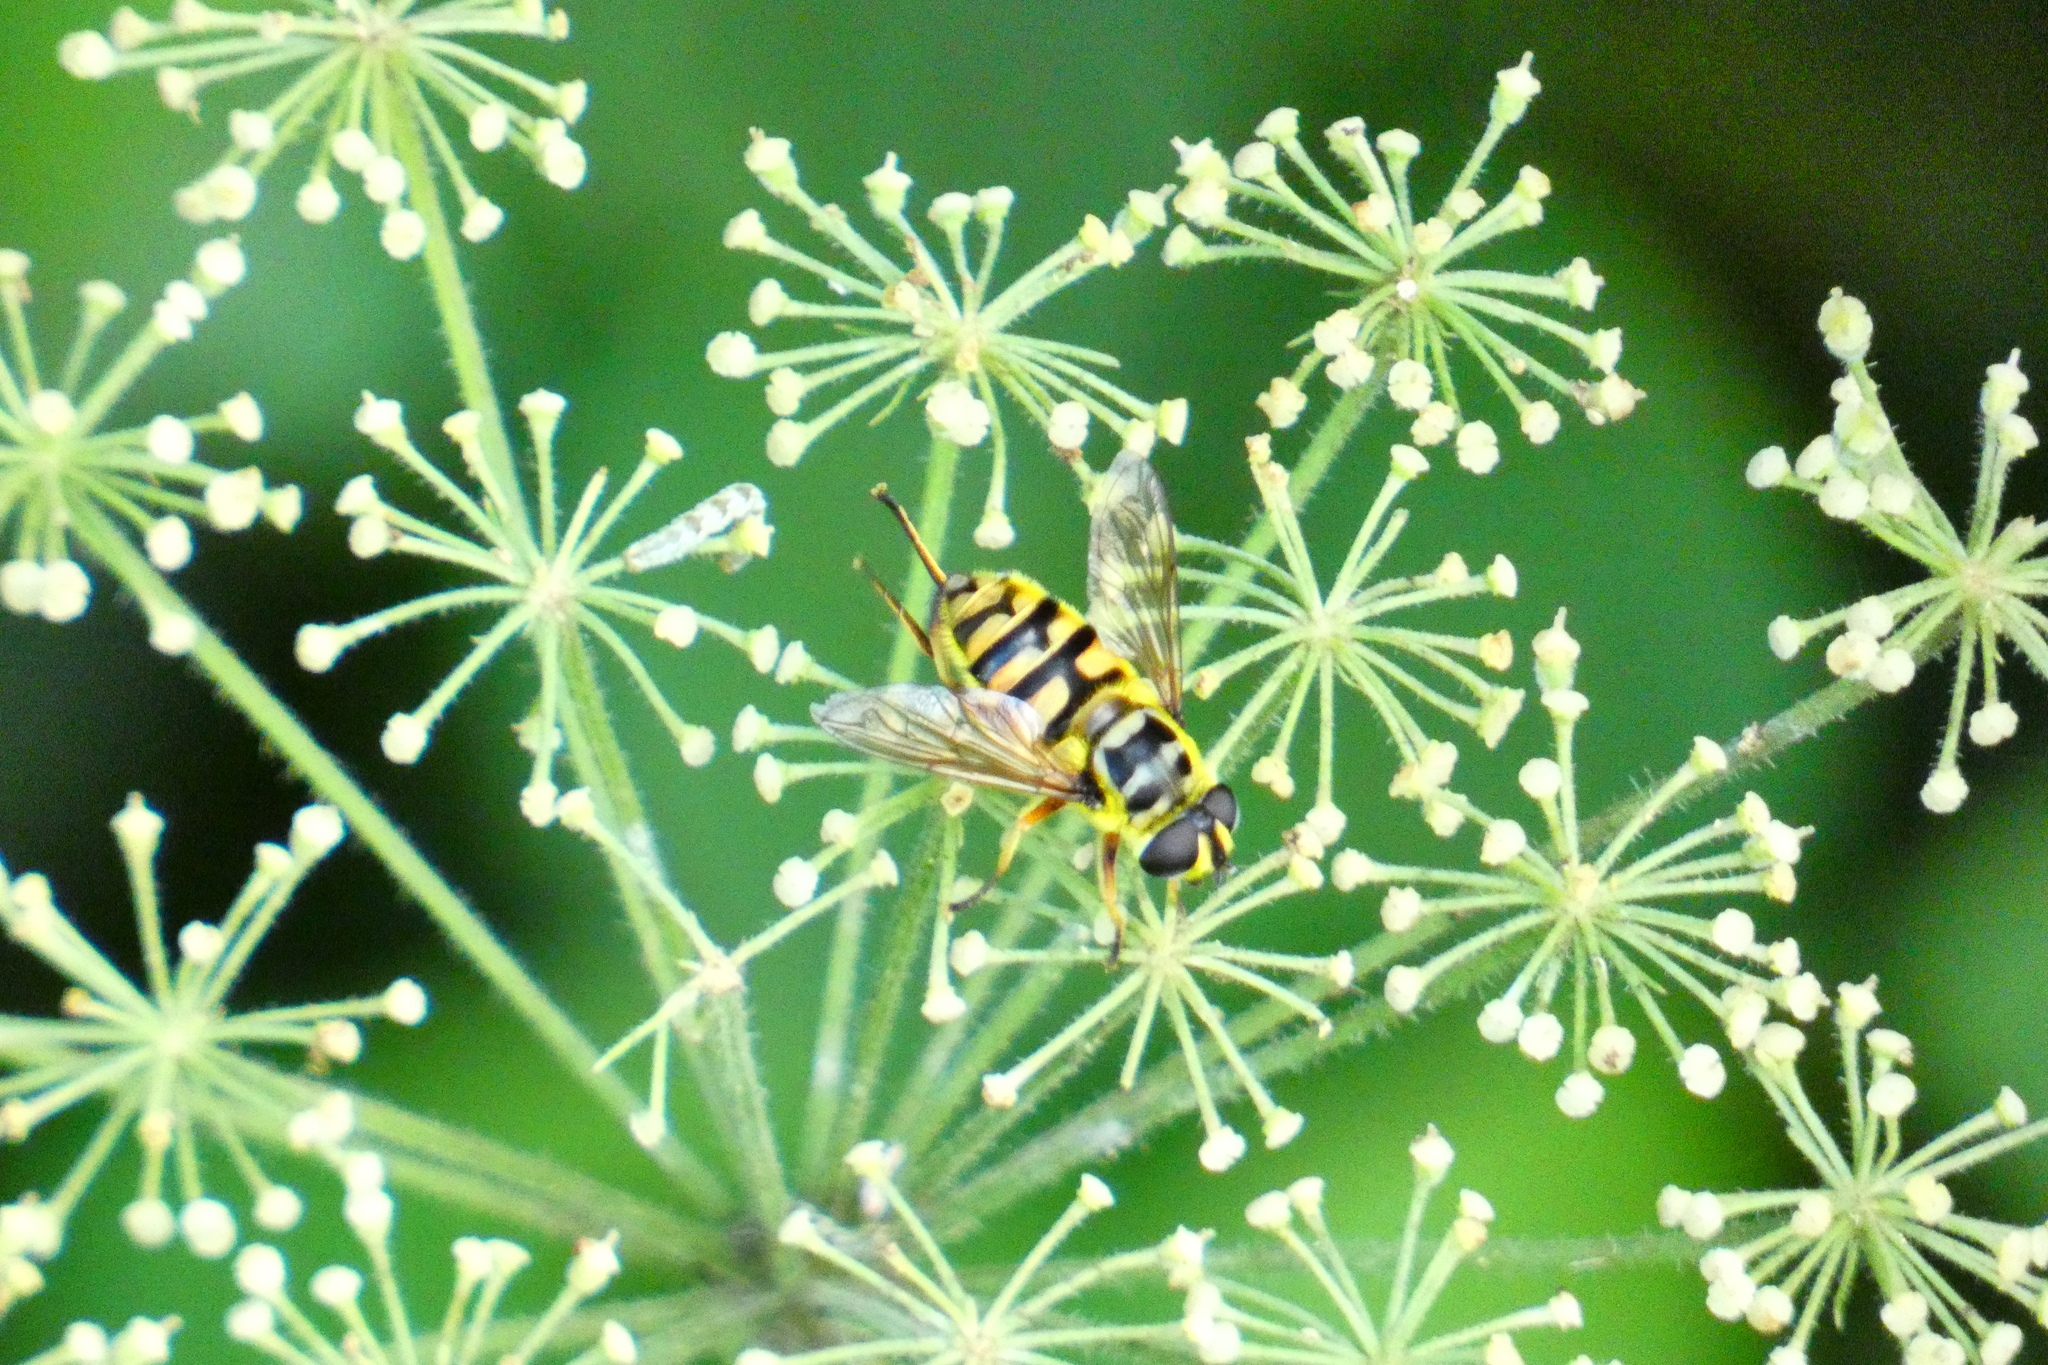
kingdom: Animalia
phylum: Arthropoda
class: Insecta
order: Diptera
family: Syrphidae
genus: Myathropa
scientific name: Myathropa florea
